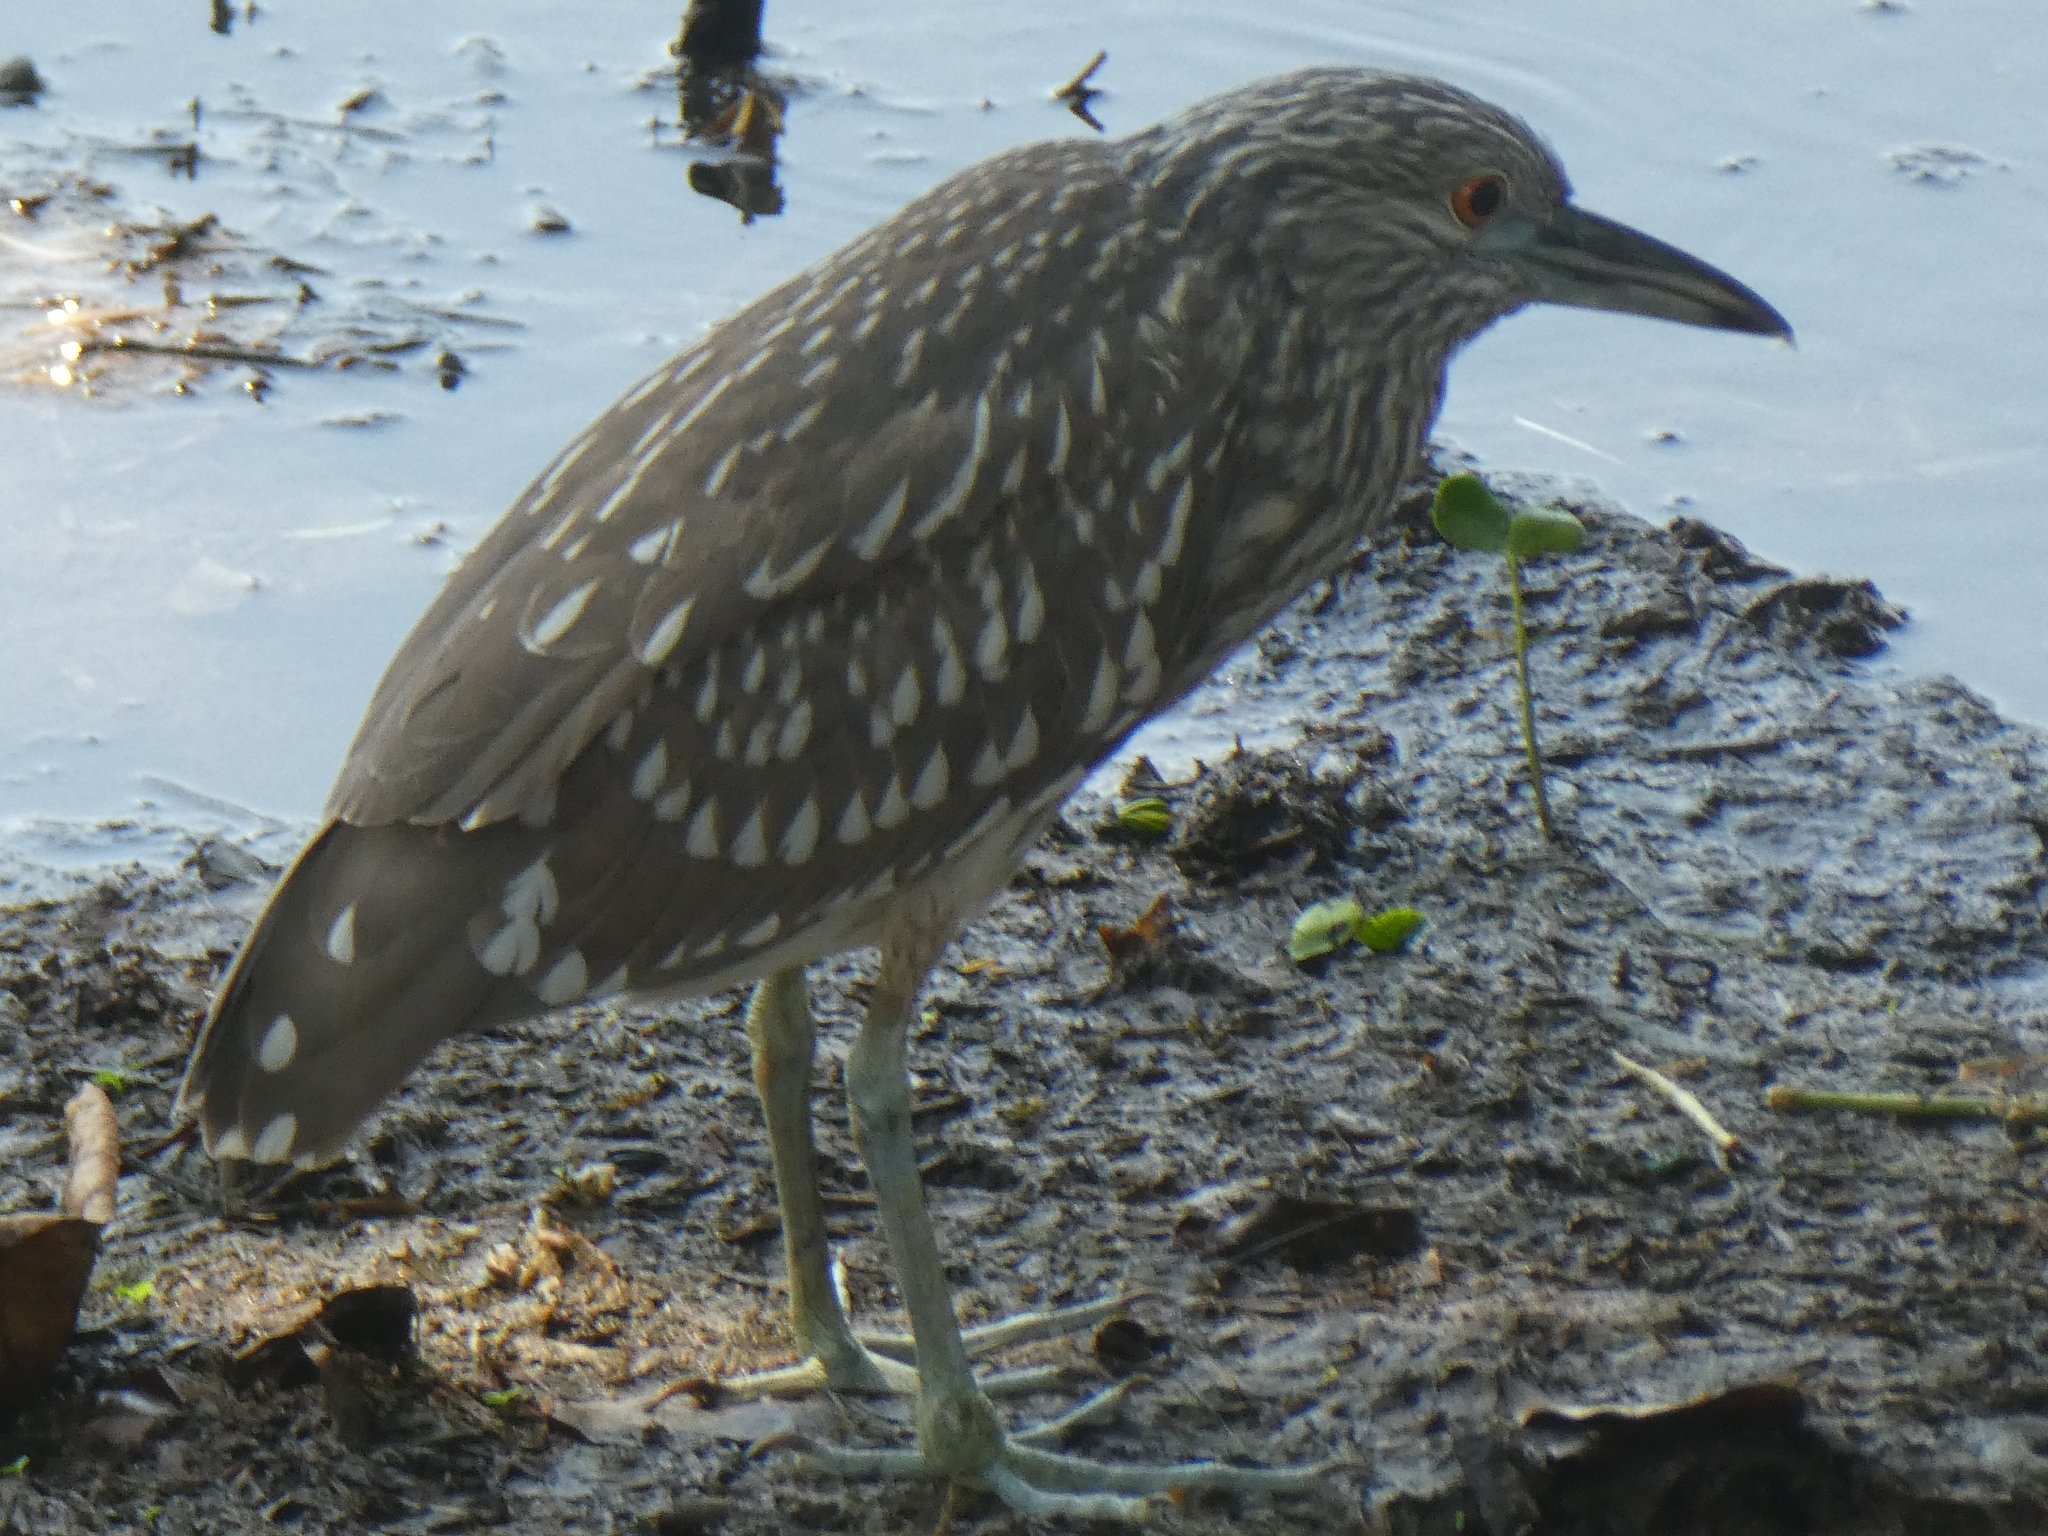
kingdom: Animalia
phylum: Chordata
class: Aves
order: Pelecaniformes
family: Ardeidae
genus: Nycticorax
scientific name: Nycticorax nycticorax
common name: Black-crowned night heron
